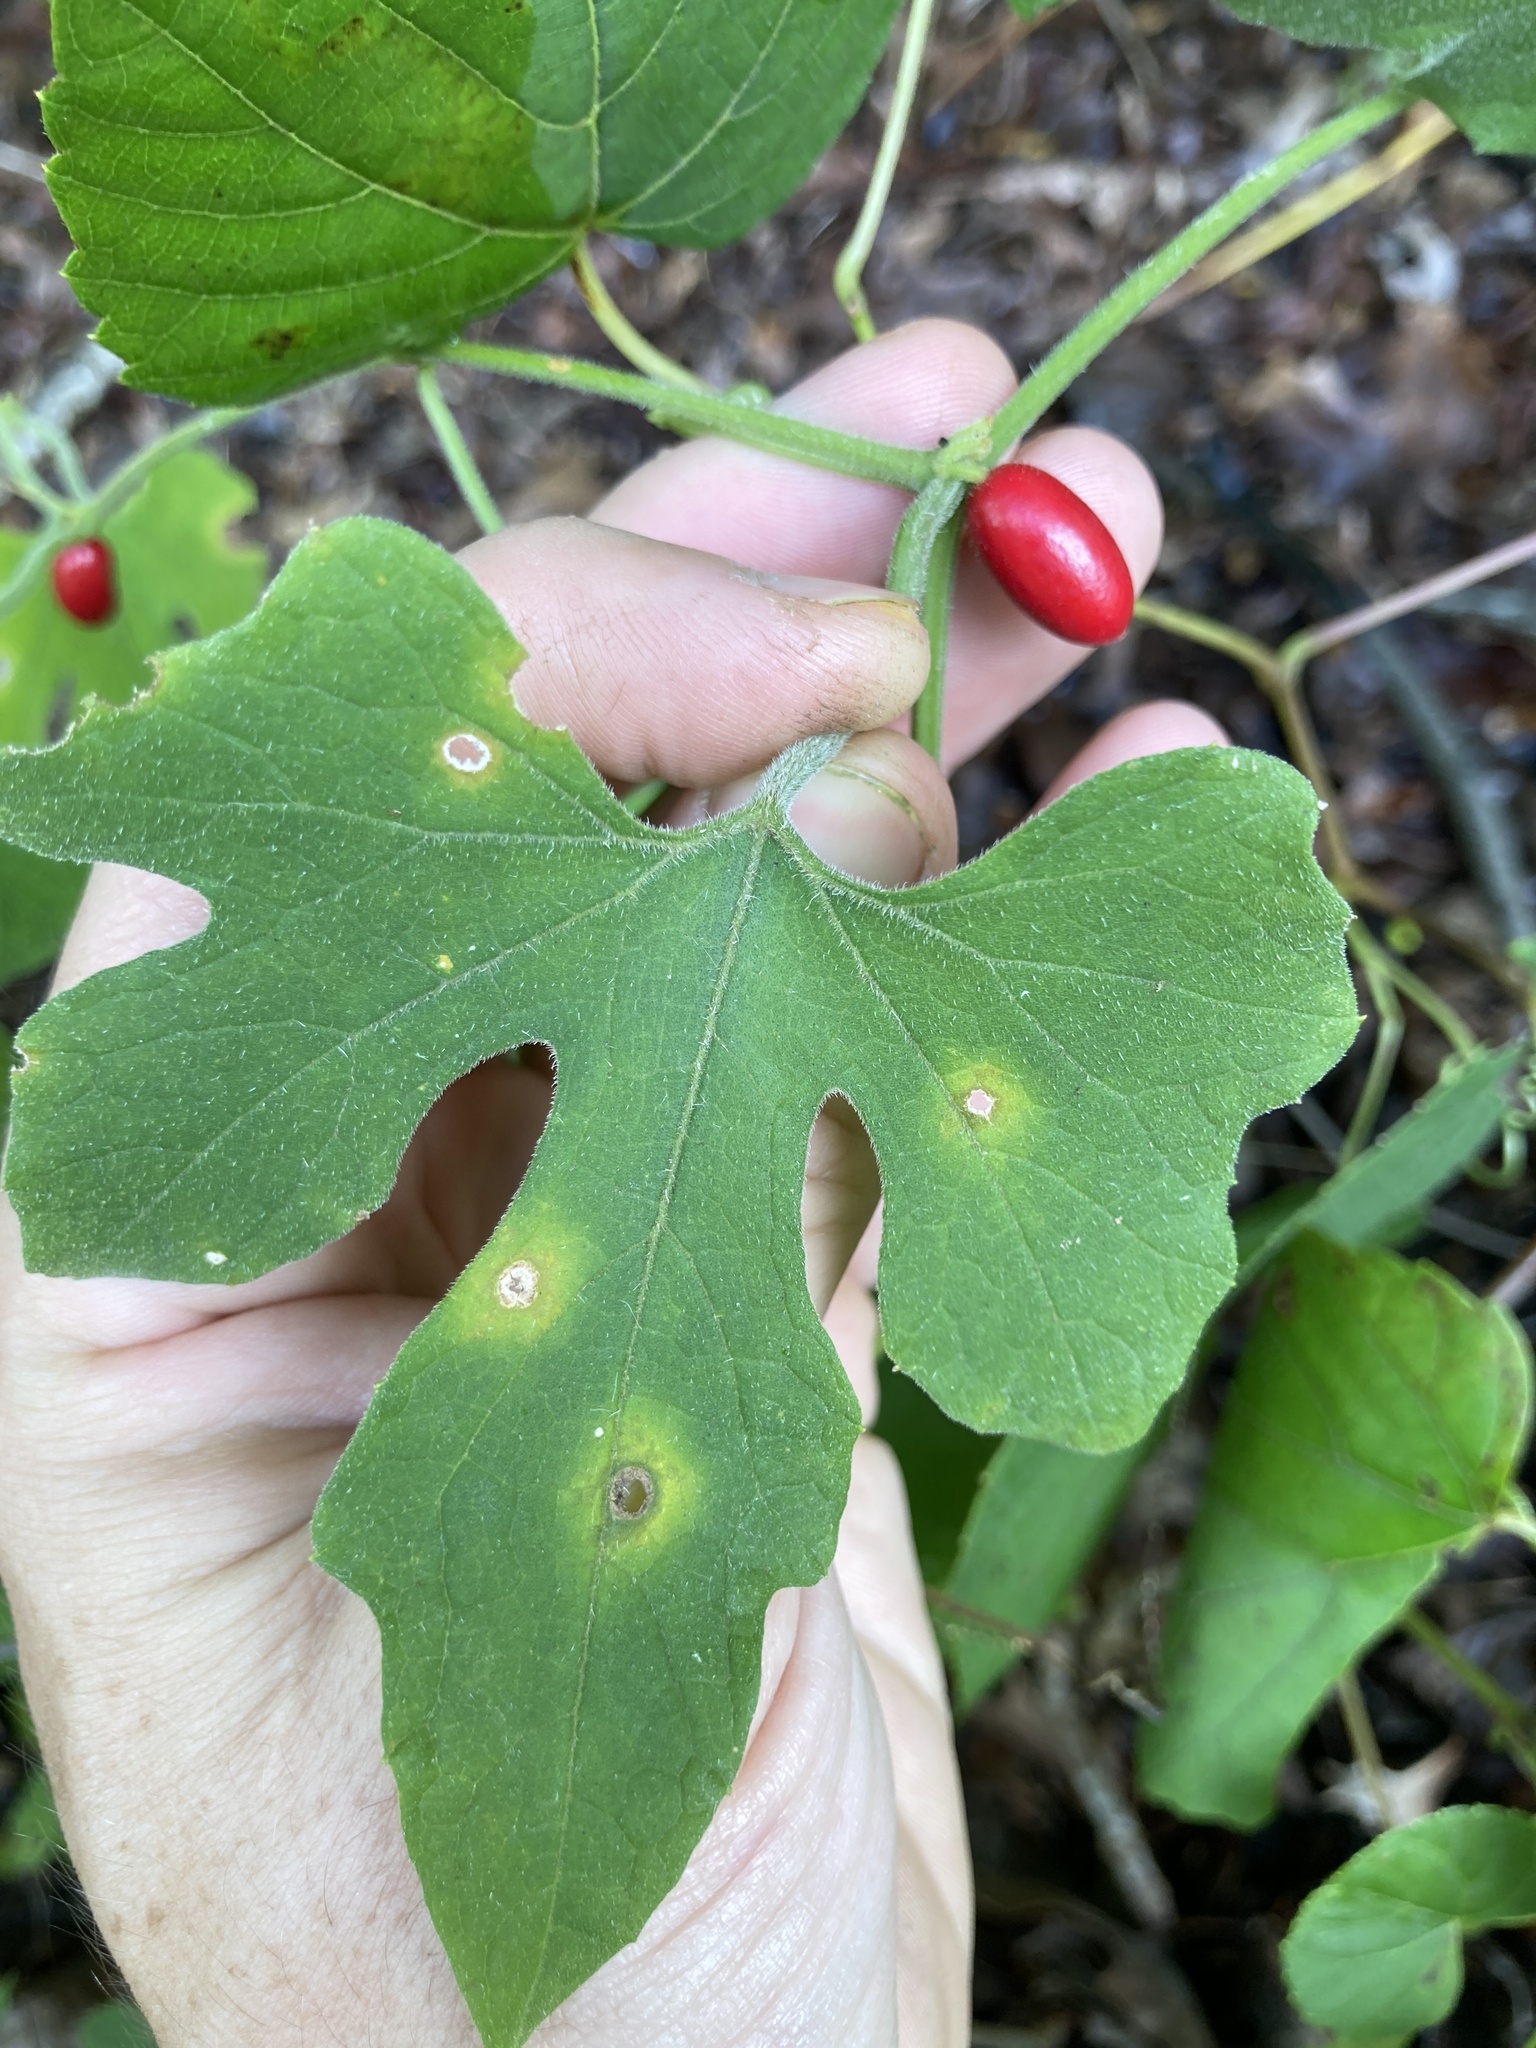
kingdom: Plantae
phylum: Tracheophyta
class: Magnoliopsida
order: Cucurbitales
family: Cucurbitaceae
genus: Cayaponia
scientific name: Cayaponia quinqueloba
